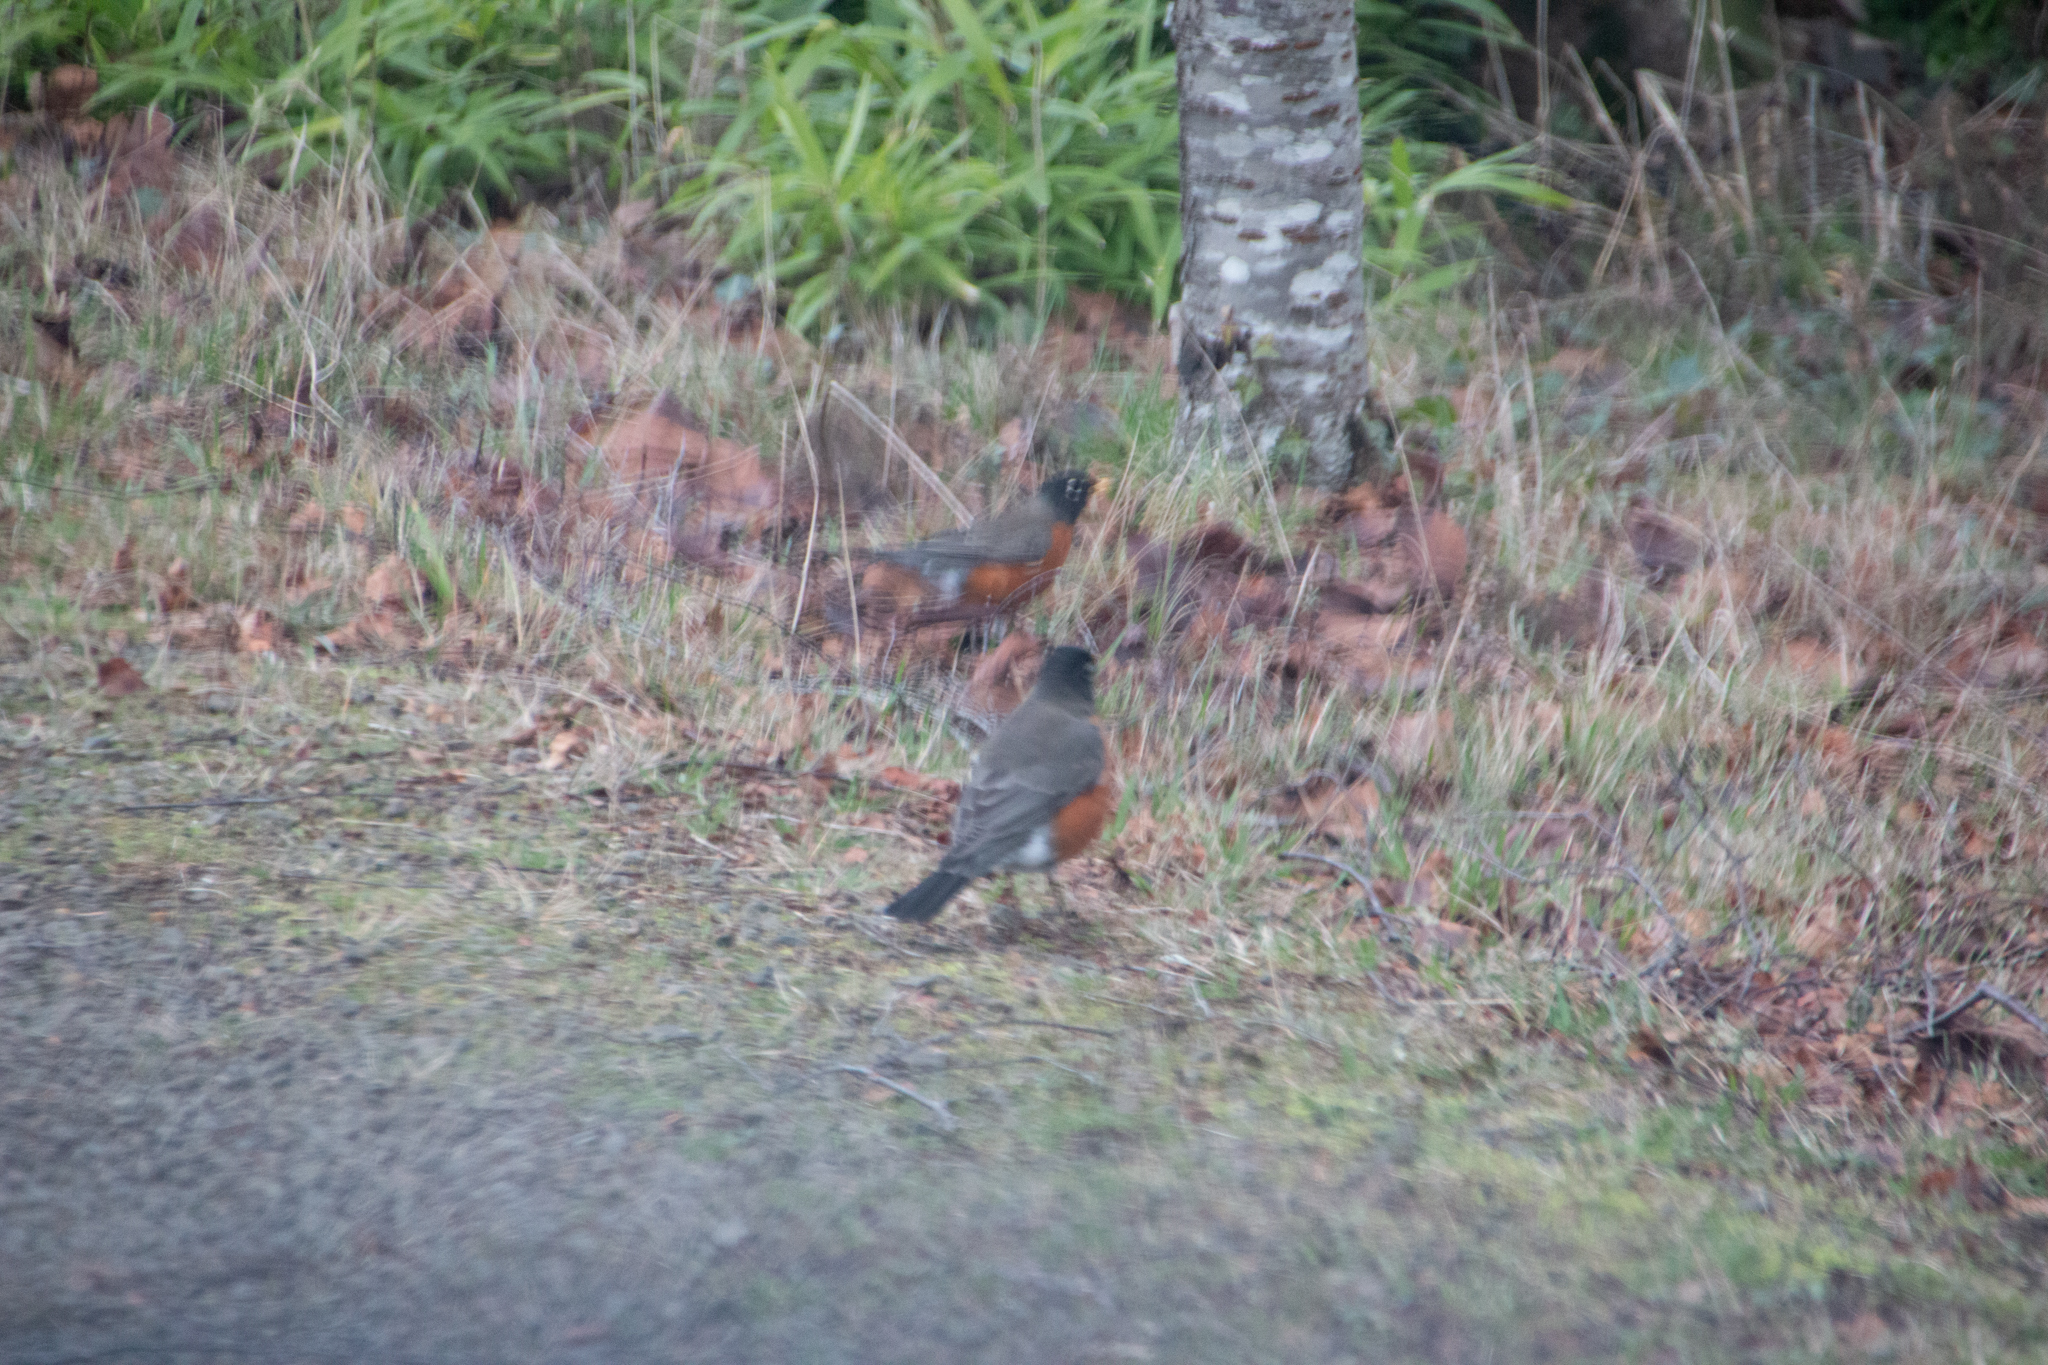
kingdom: Animalia
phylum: Chordata
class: Aves
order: Passeriformes
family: Turdidae
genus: Turdus
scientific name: Turdus migratorius
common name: American robin
